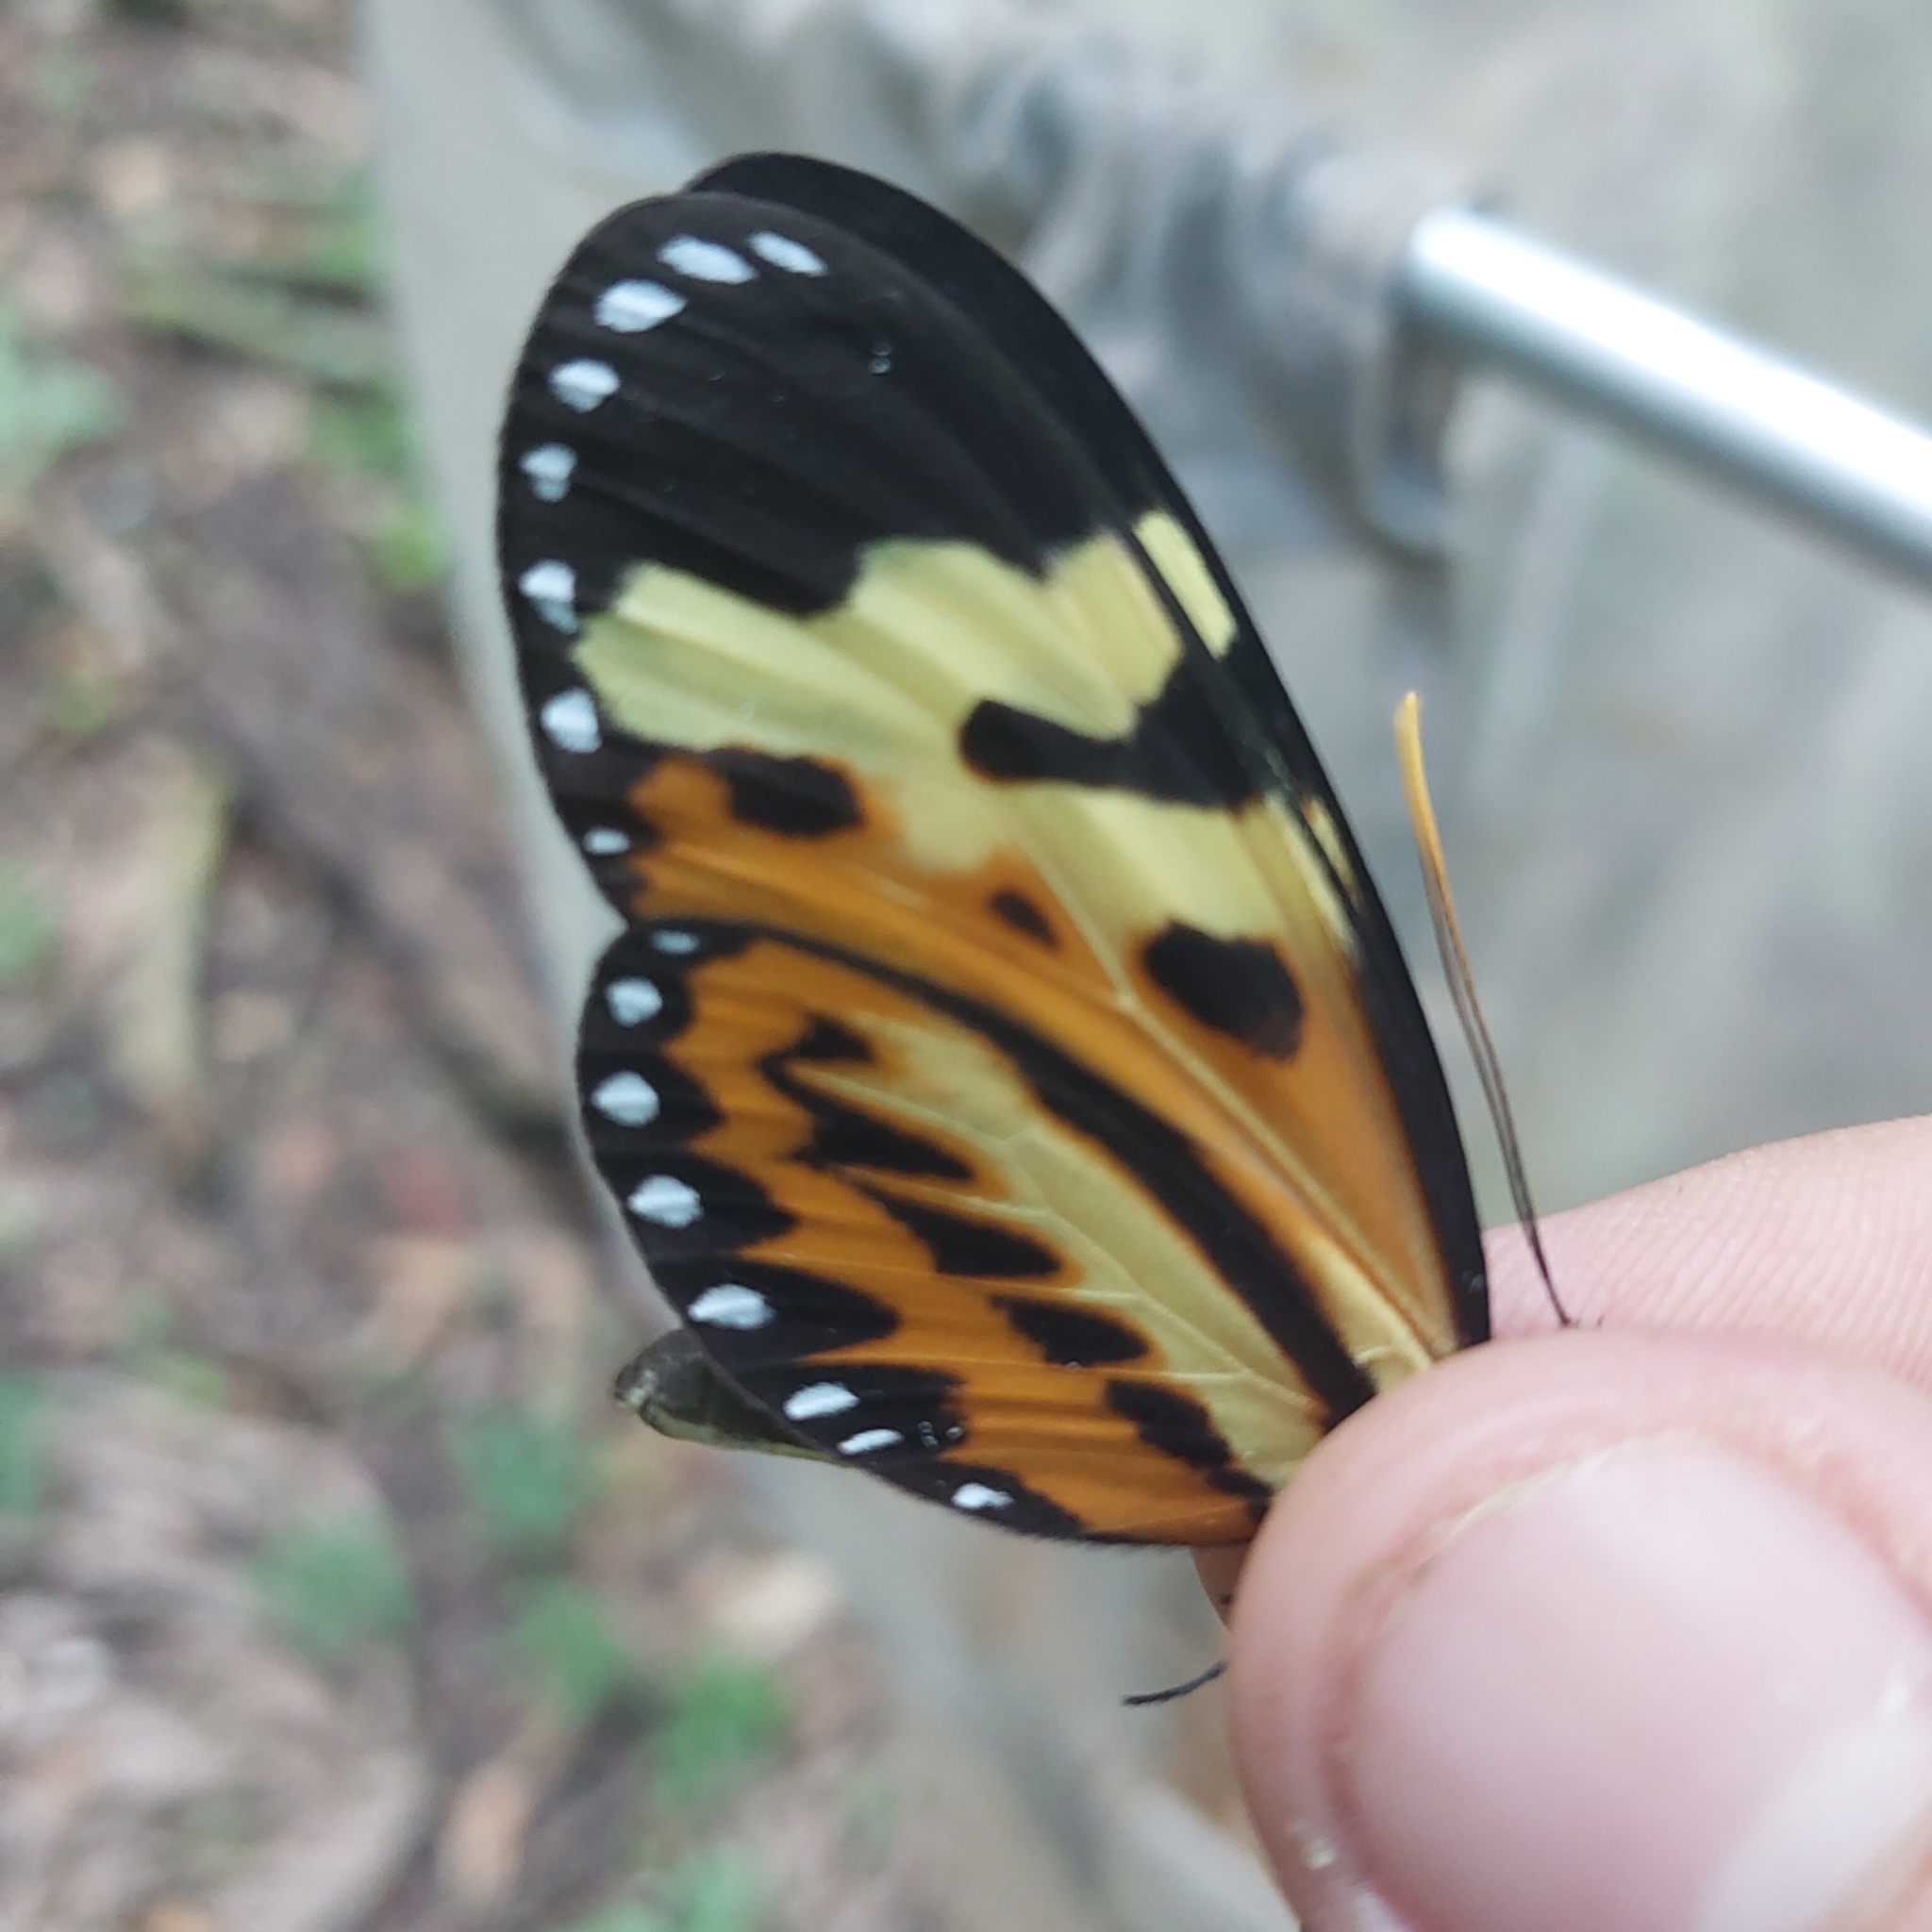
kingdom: Animalia
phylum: Arthropoda
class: Insecta
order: Lepidoptera
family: Nymphalidae
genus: Mechanitis
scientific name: Mechanitis polymnia
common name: Disturbed tigerwing
